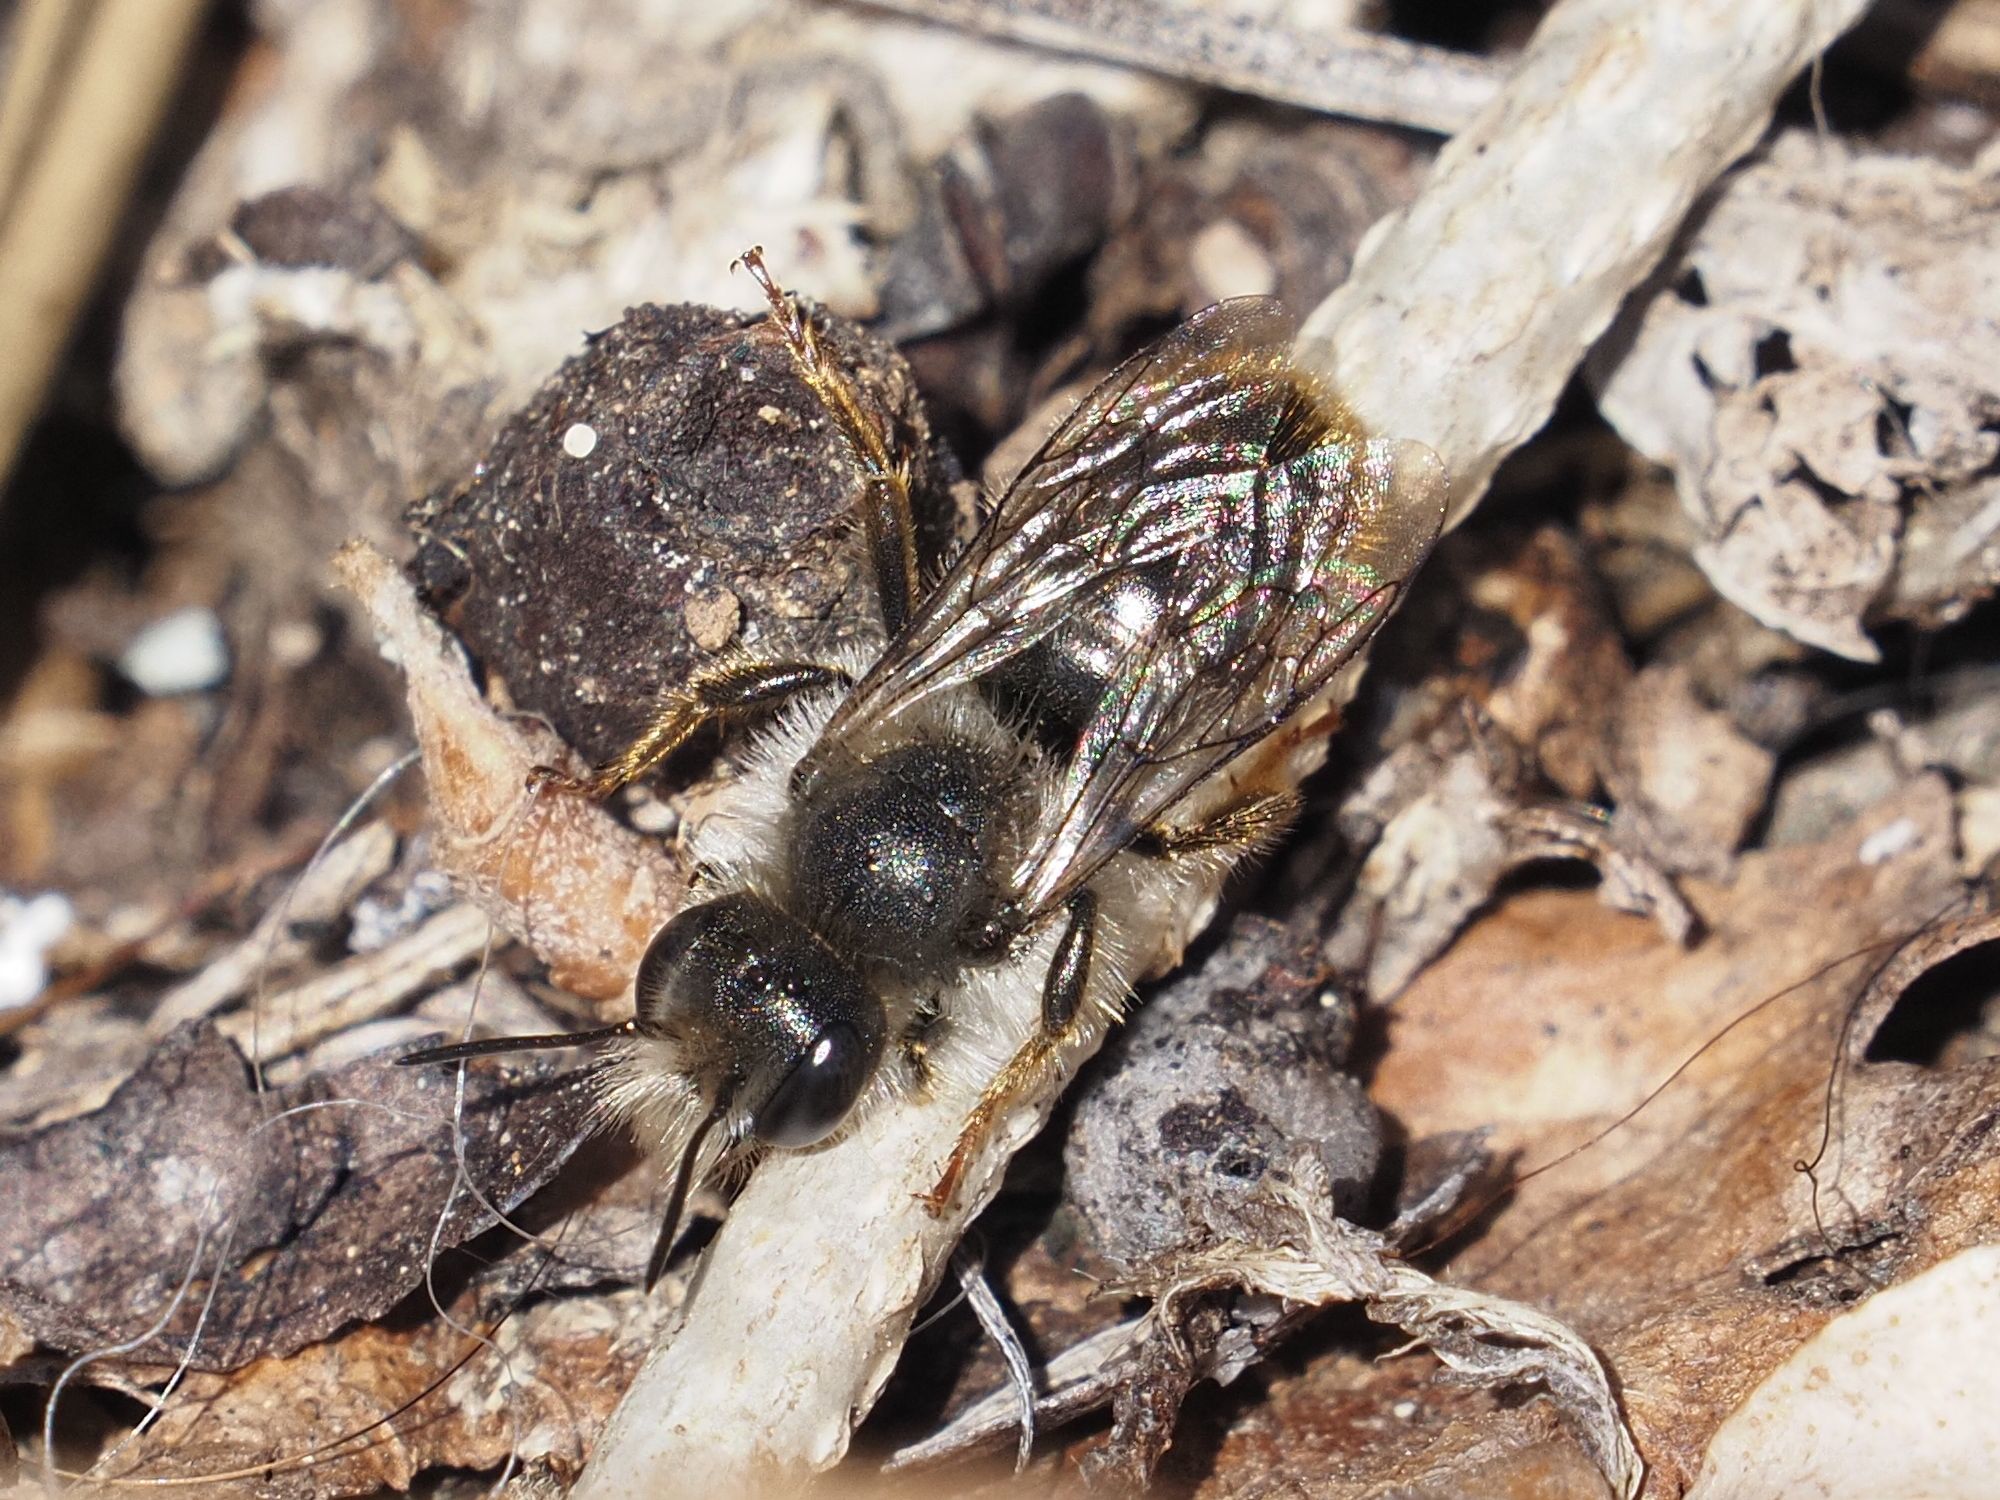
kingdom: Animalia
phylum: Arthropoda
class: Insecta
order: Hymenoptera
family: Megachilidae
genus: Osmia
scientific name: Osmia bicolor
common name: Red-tailed mason bee
